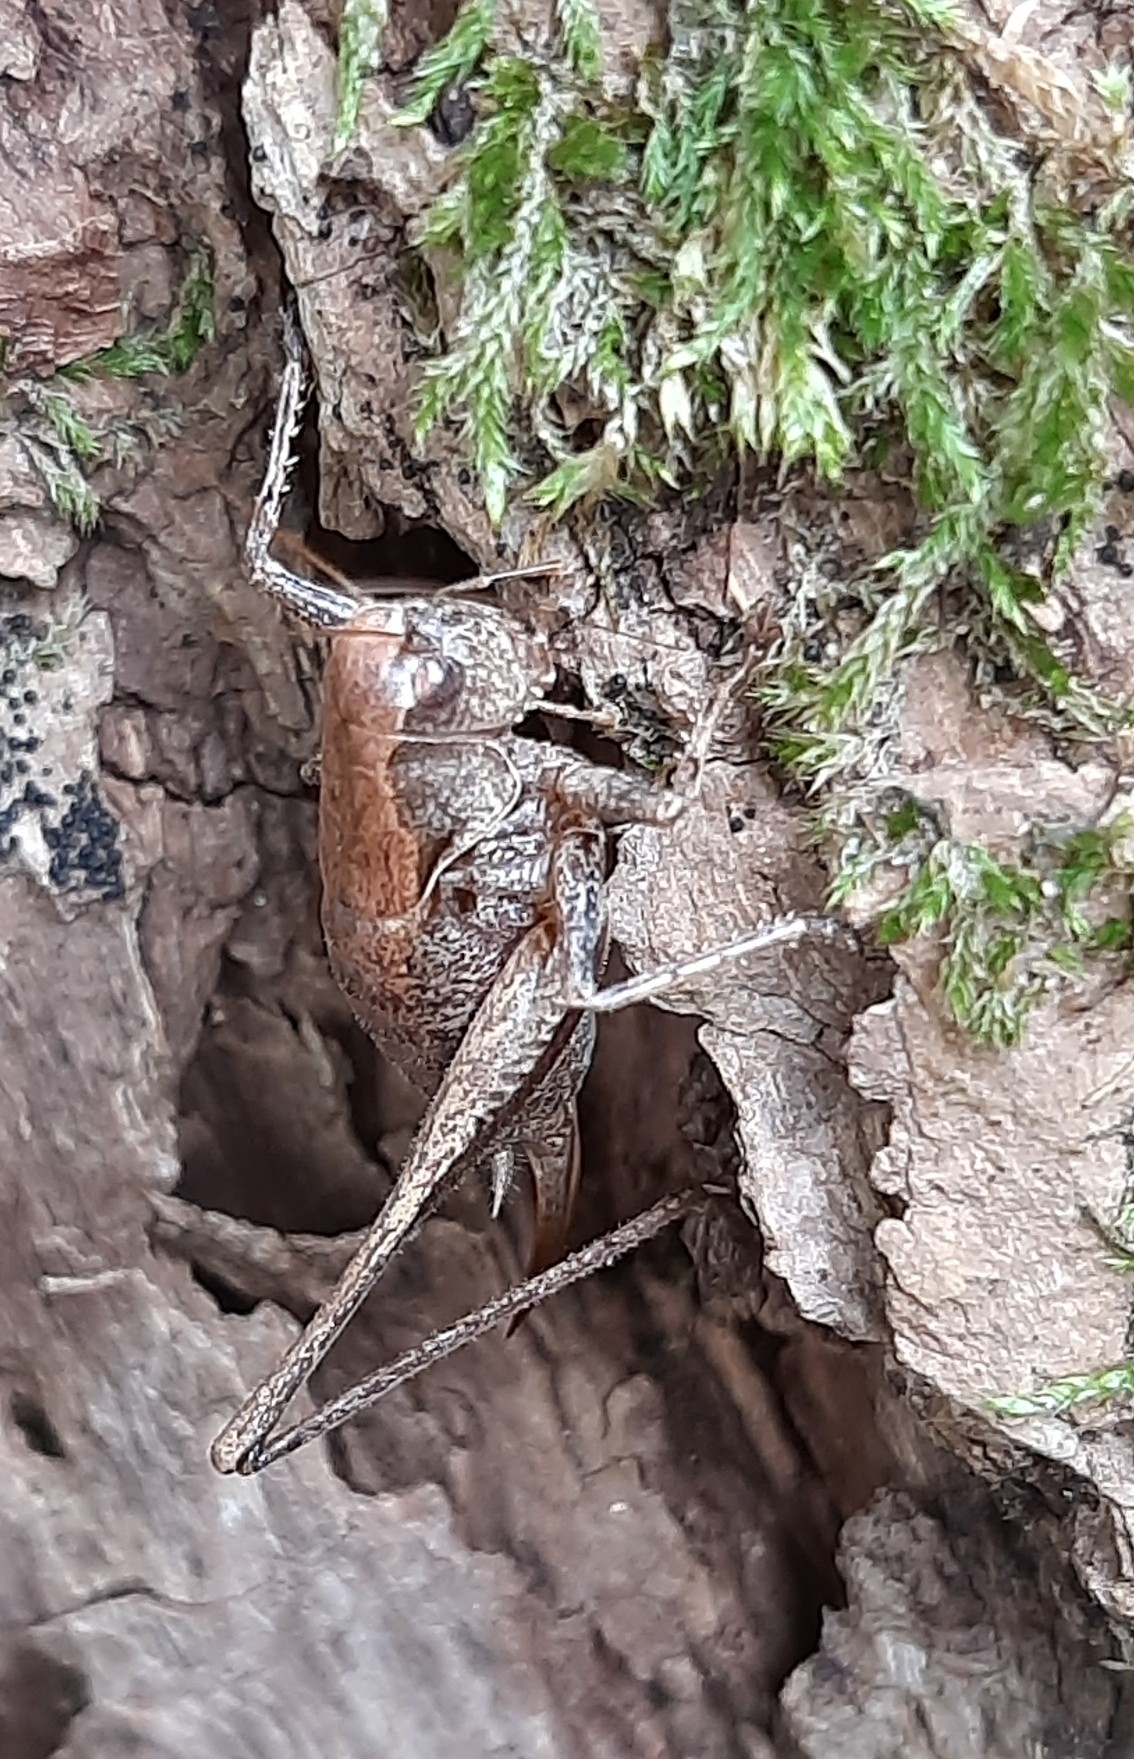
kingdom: Animalia
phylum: Arthropoda
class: Insecta
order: Orthoptera
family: Tettigoniidae
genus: Pholidoptera
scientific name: Pholidoptera griseoaptera
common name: Dark bush-cricket
